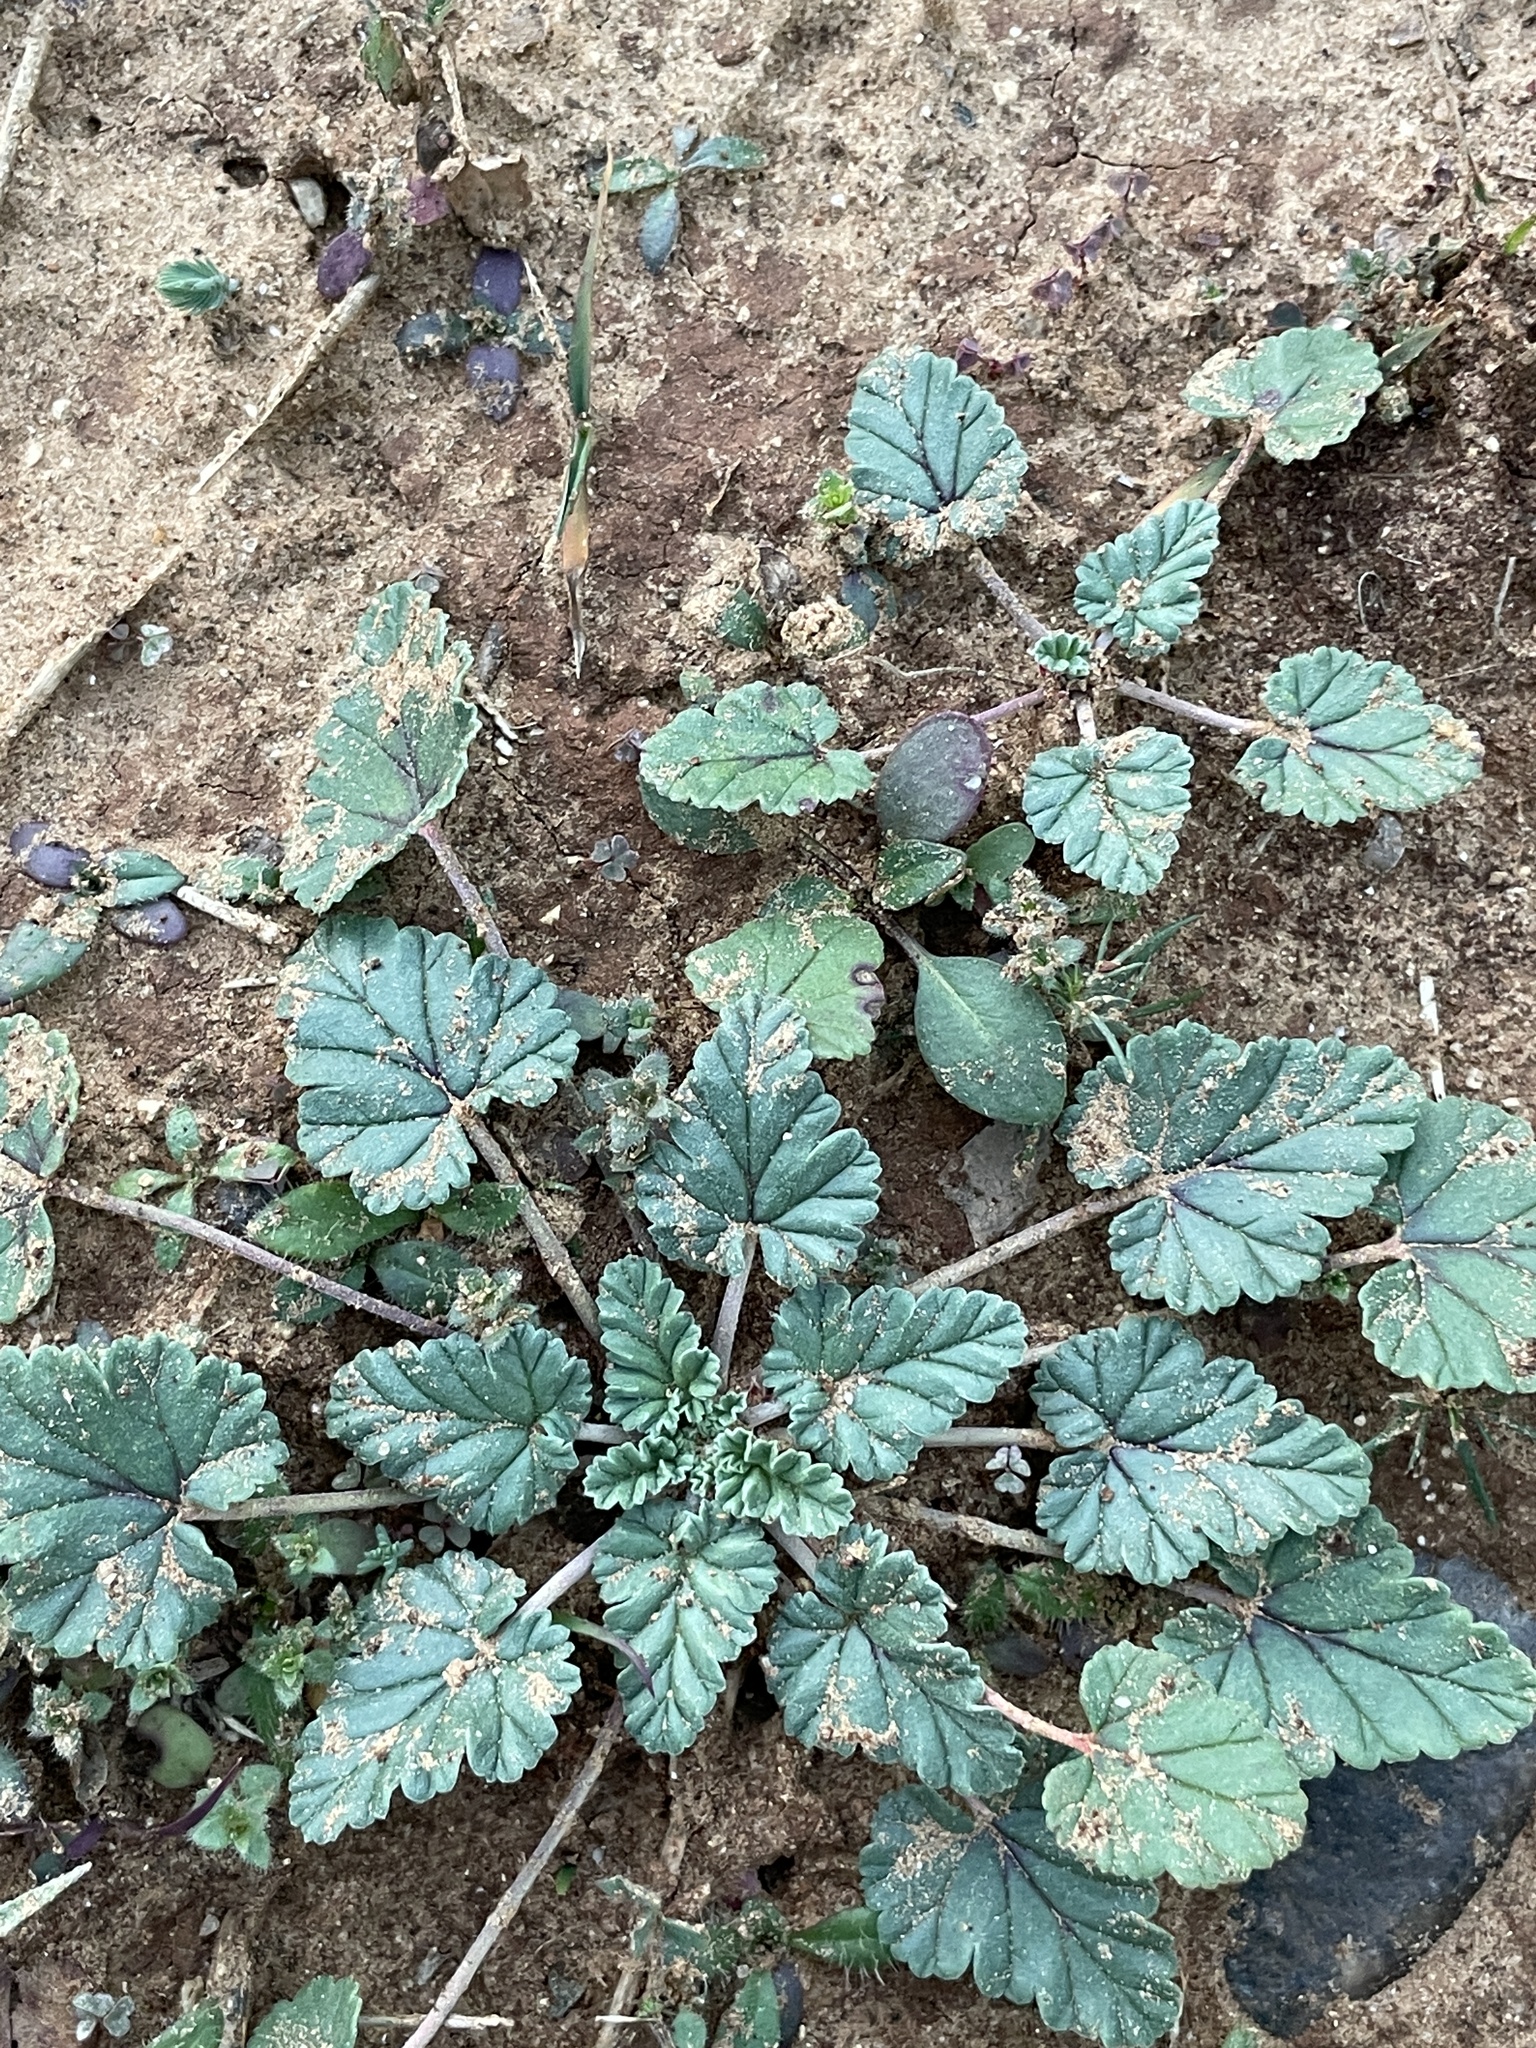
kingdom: Plantae
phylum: Tracheophyta
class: Magnoliopsida
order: Geraniales
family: Geraniaceae
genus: Erodium
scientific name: Erodium texanum
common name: Texas stork's-bill
